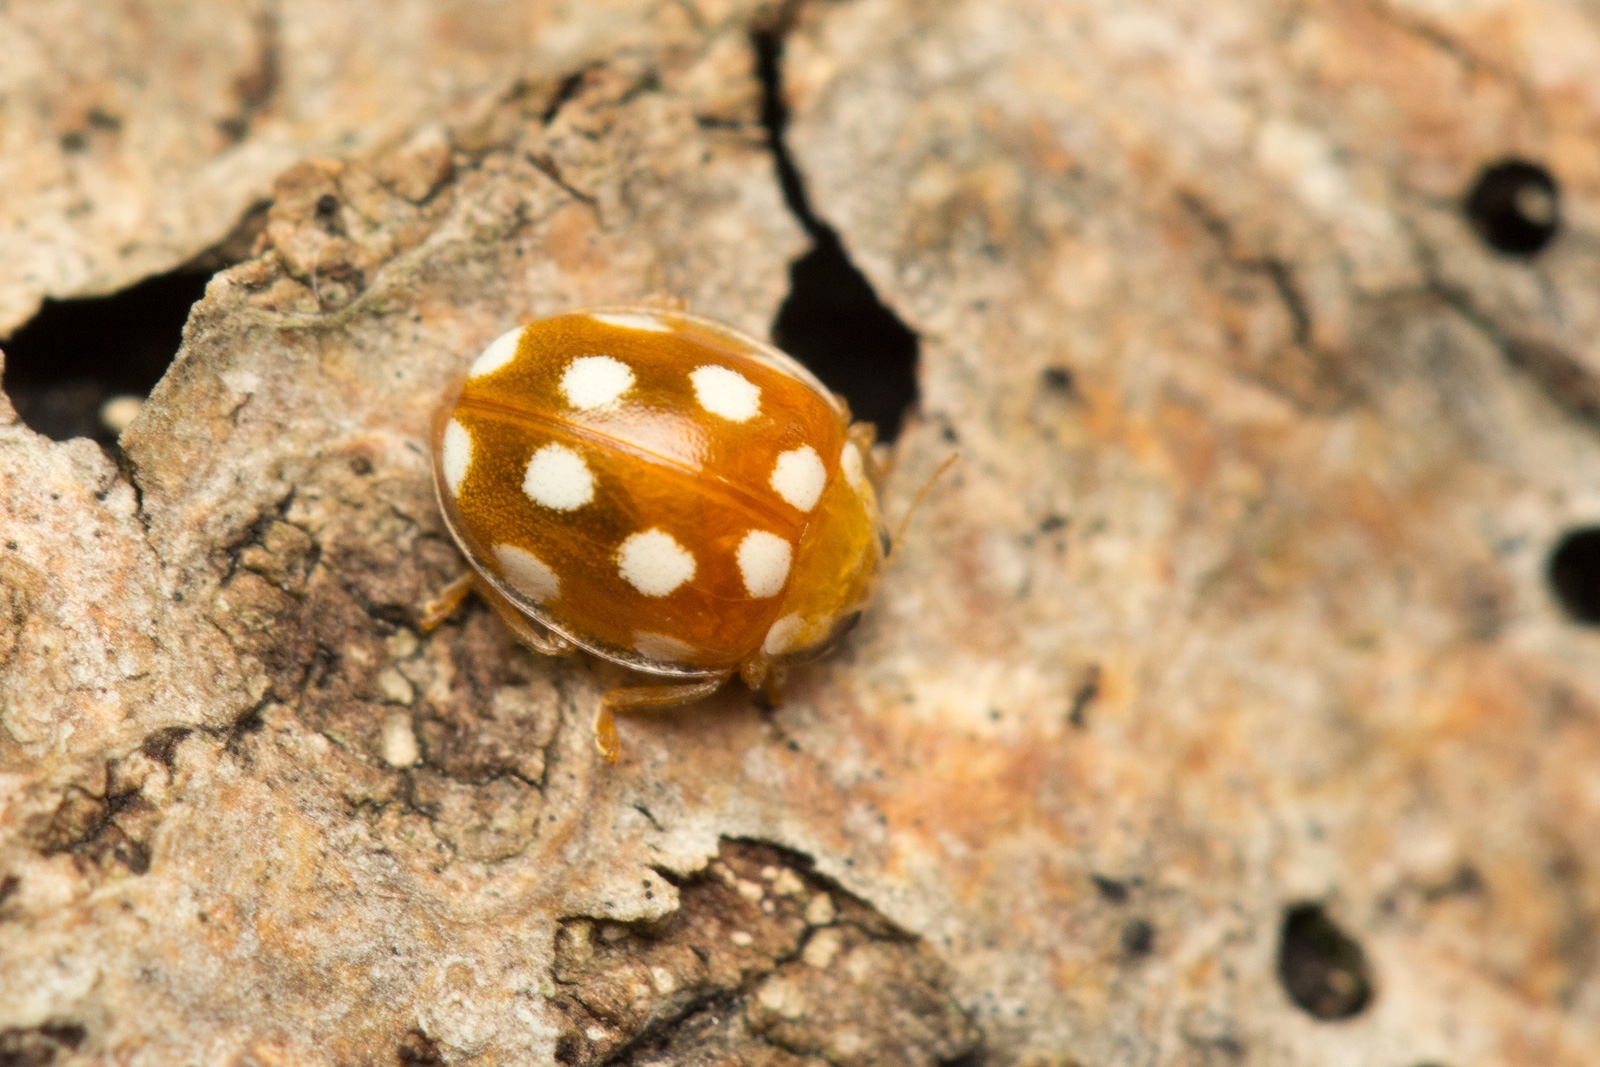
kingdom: Animalia
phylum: Arthropoda
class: Insecta
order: Coleoptera
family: Coccinellidae
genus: Vibidia
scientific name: Vibidia duodecimguttata
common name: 12-spot ladybird
